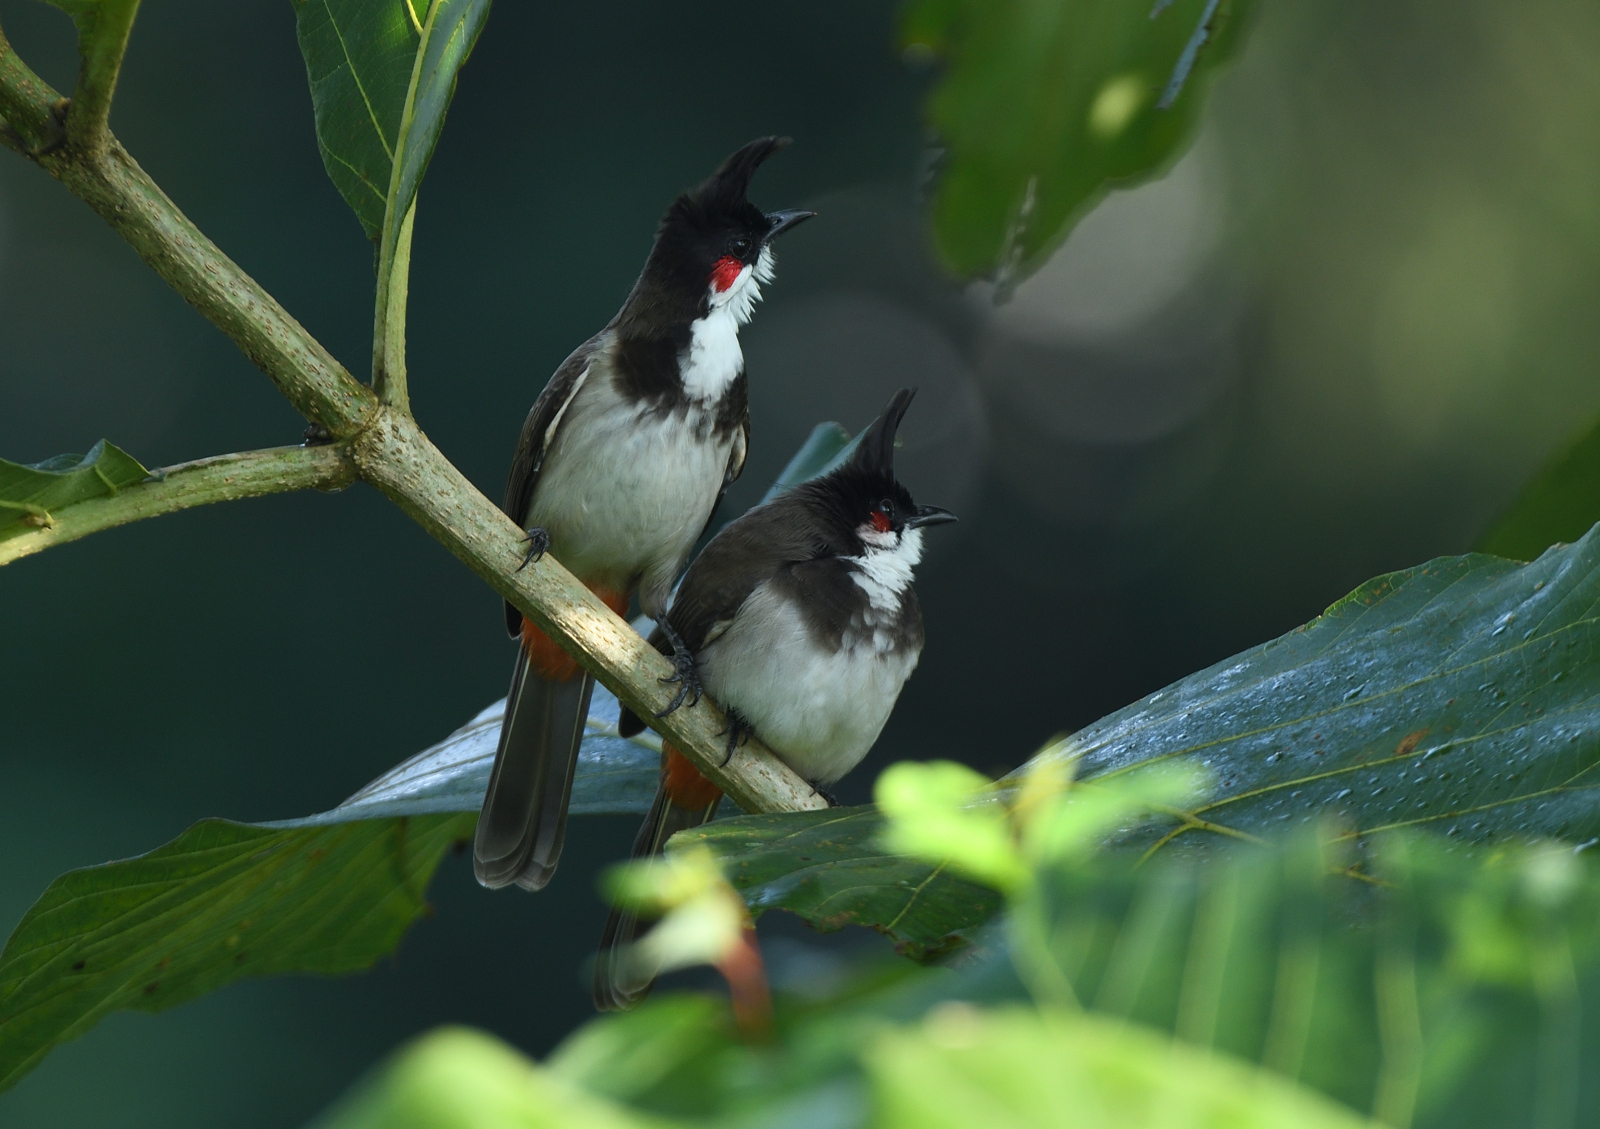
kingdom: Animalia
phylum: Chordata
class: Aves
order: Passeriformes
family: Pycnonotidae
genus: Pycnonotus
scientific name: Pycnonotus jocosus
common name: Red-whiskered bulbul
